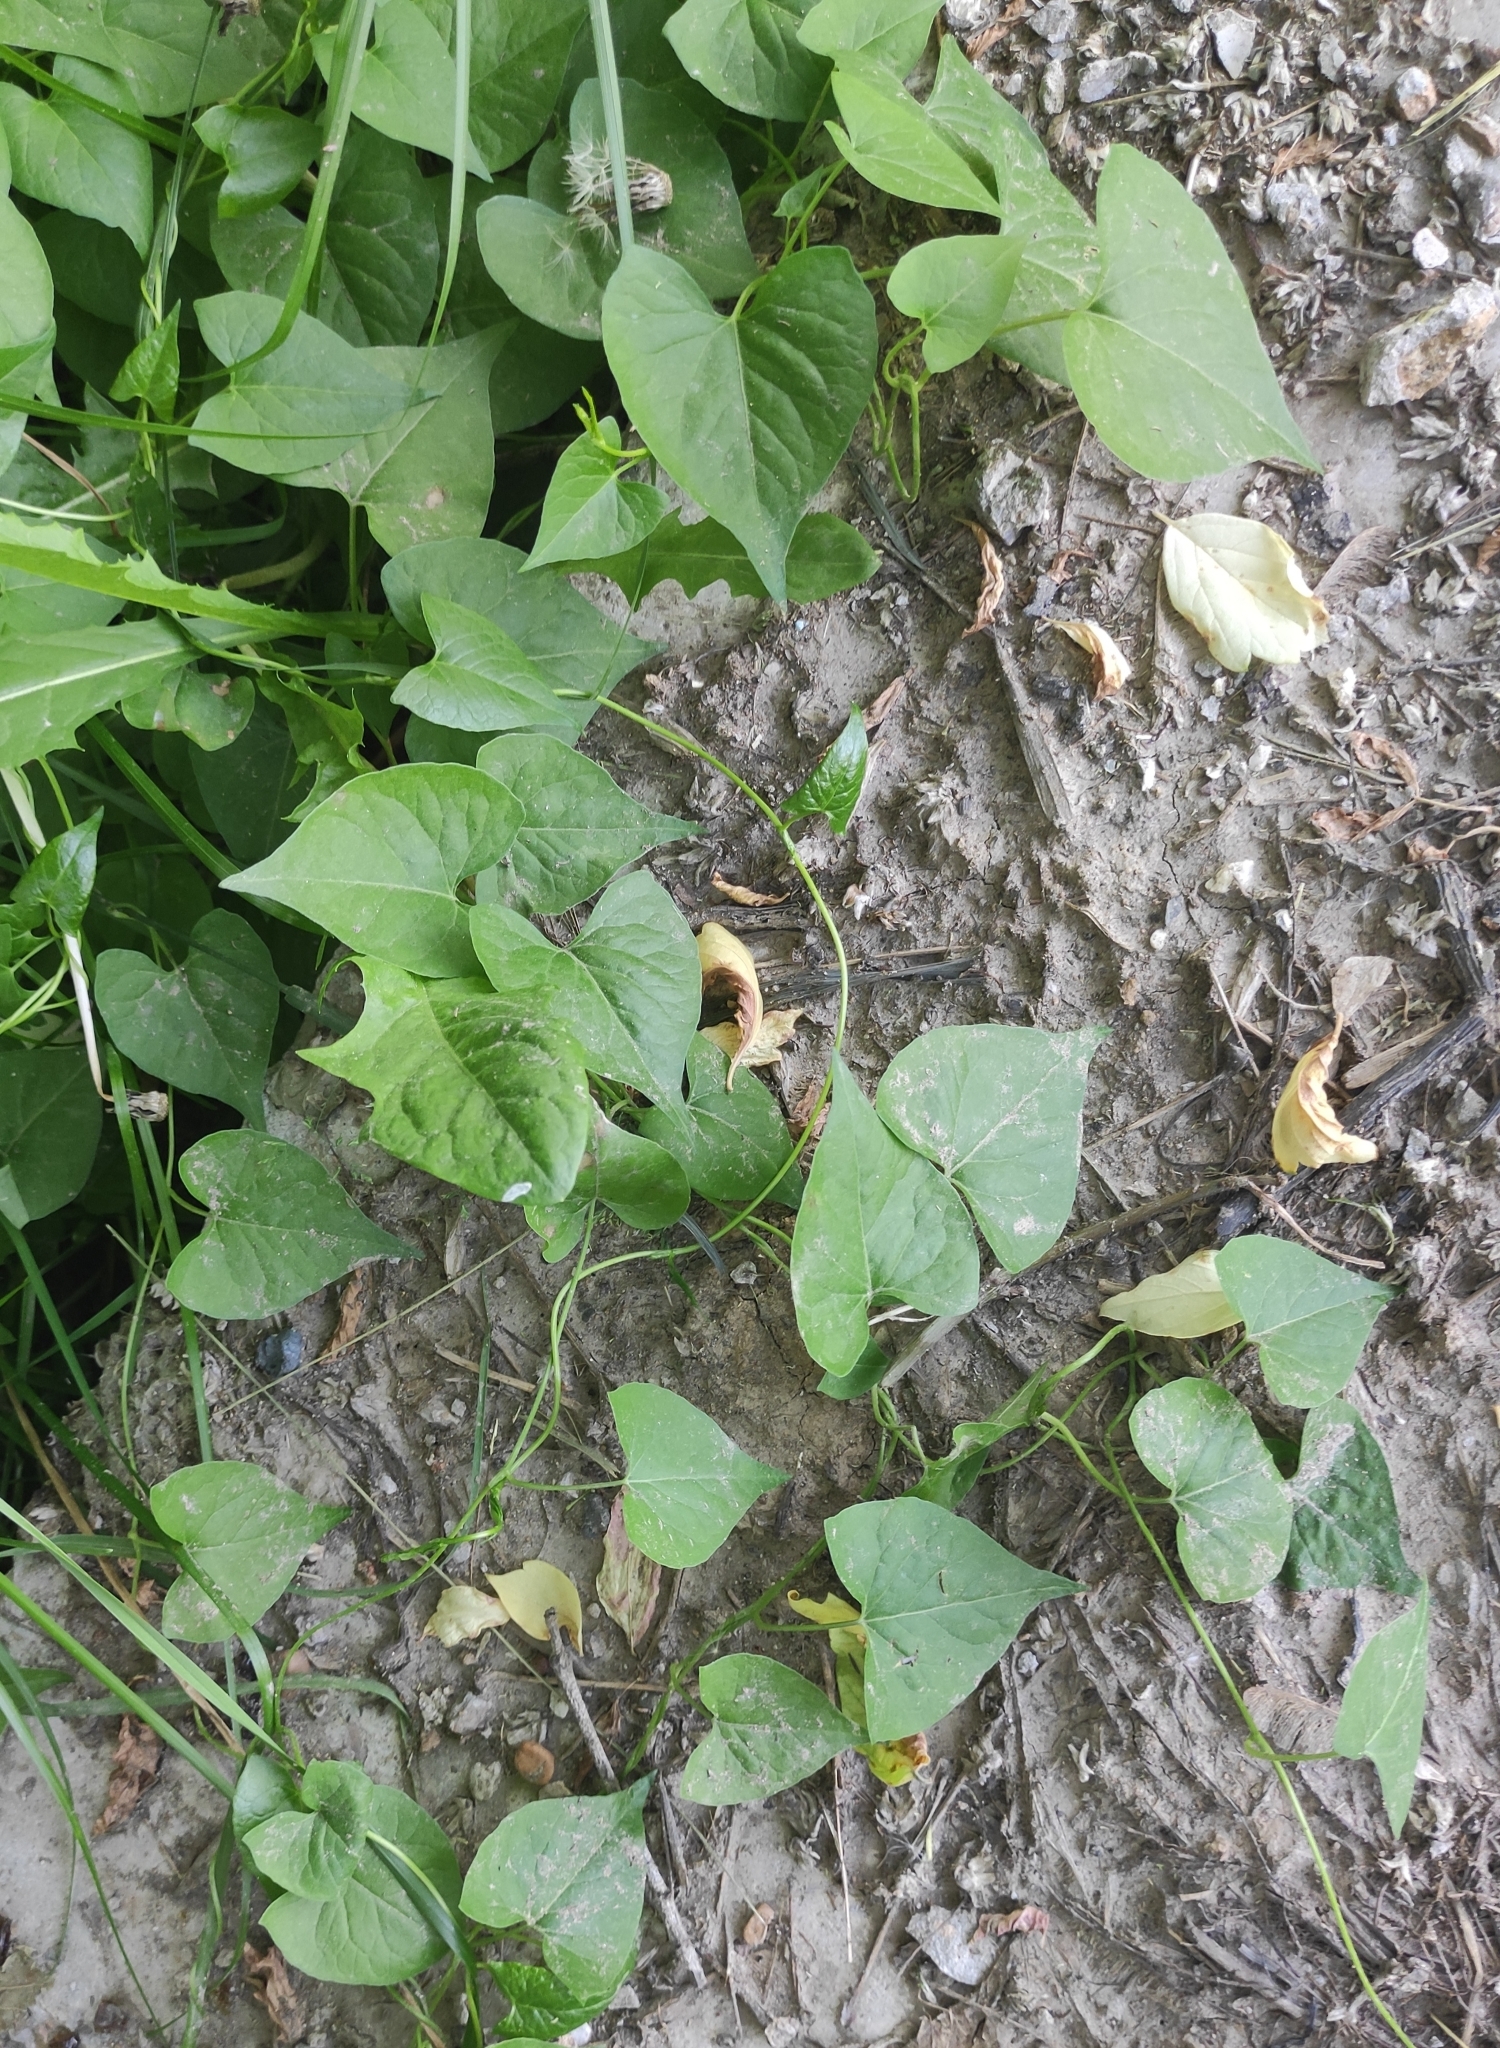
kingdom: Plantae
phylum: Tracheophyta
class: Magnoliopsida
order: Caryophyllales
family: Polygonaceae
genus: Fallopia
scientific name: Fallopia convolvulus
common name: Black bindweed
